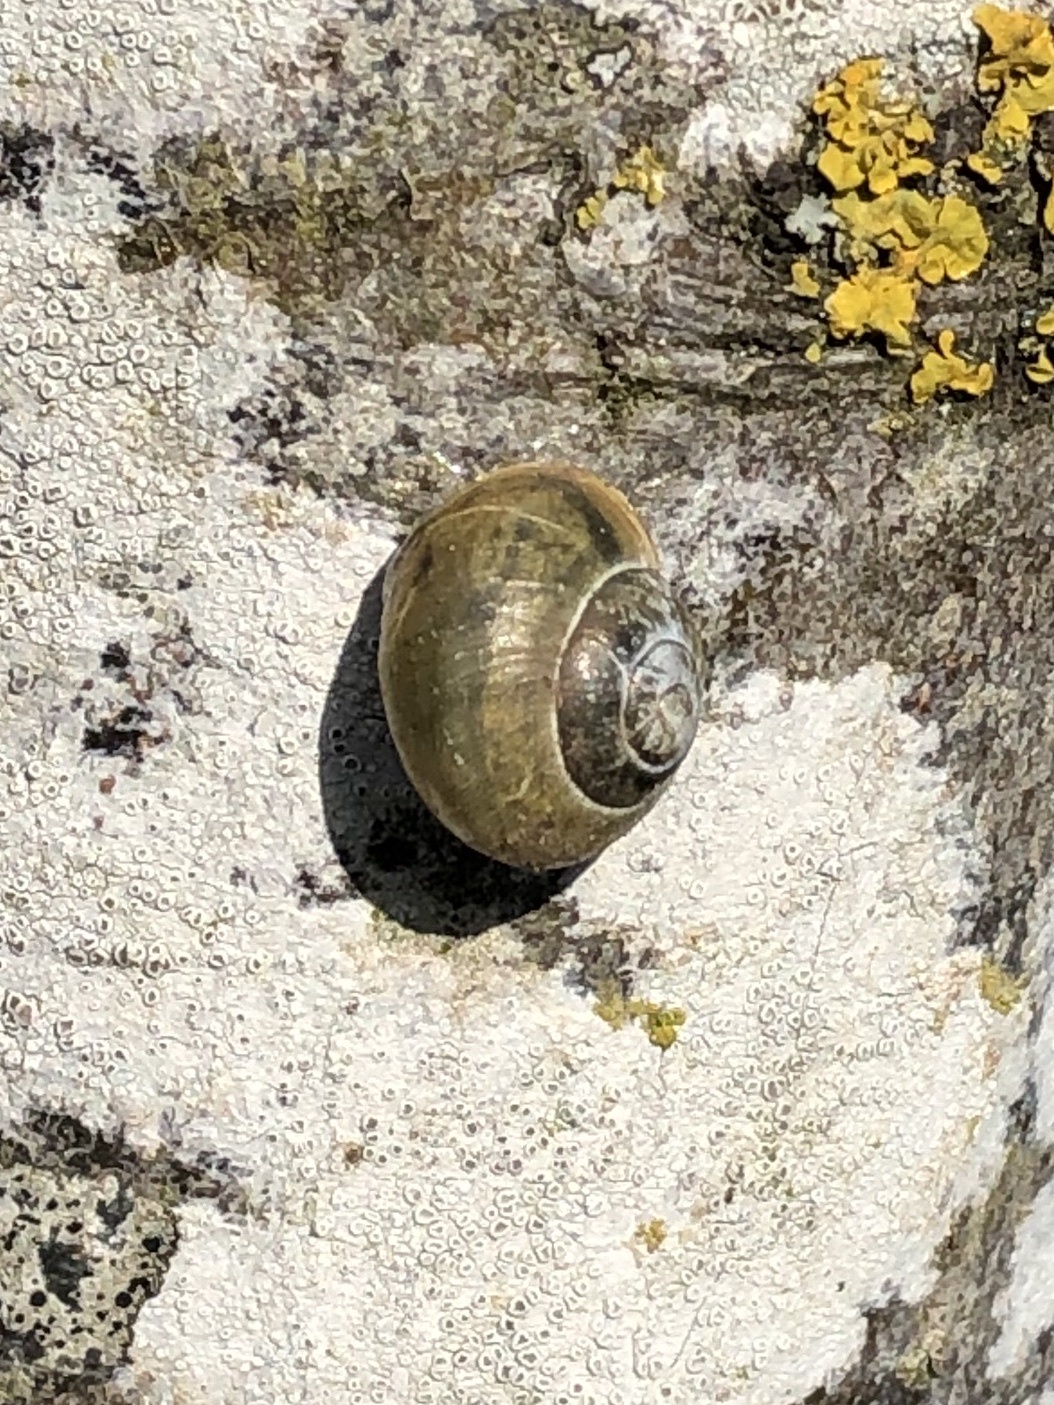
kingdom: Animalia
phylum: Mollusca
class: Gastropoda
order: Stylommatophora
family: Helicidae
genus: Cepaea
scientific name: Cepaea nemoralis
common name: Grovesnail
